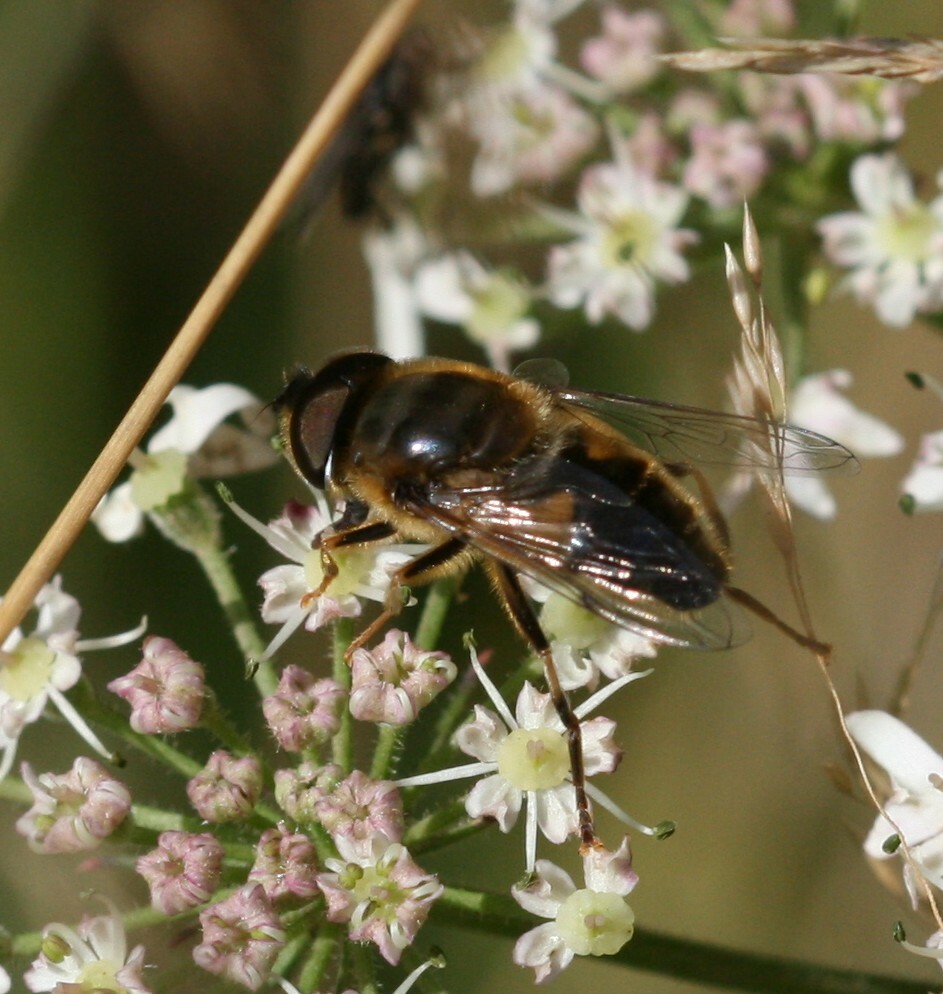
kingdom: Animalia
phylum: Arthropoda
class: Insecta
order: Diptera
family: Syrphidae
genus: Eristalis
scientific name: Eristalis pertinax
